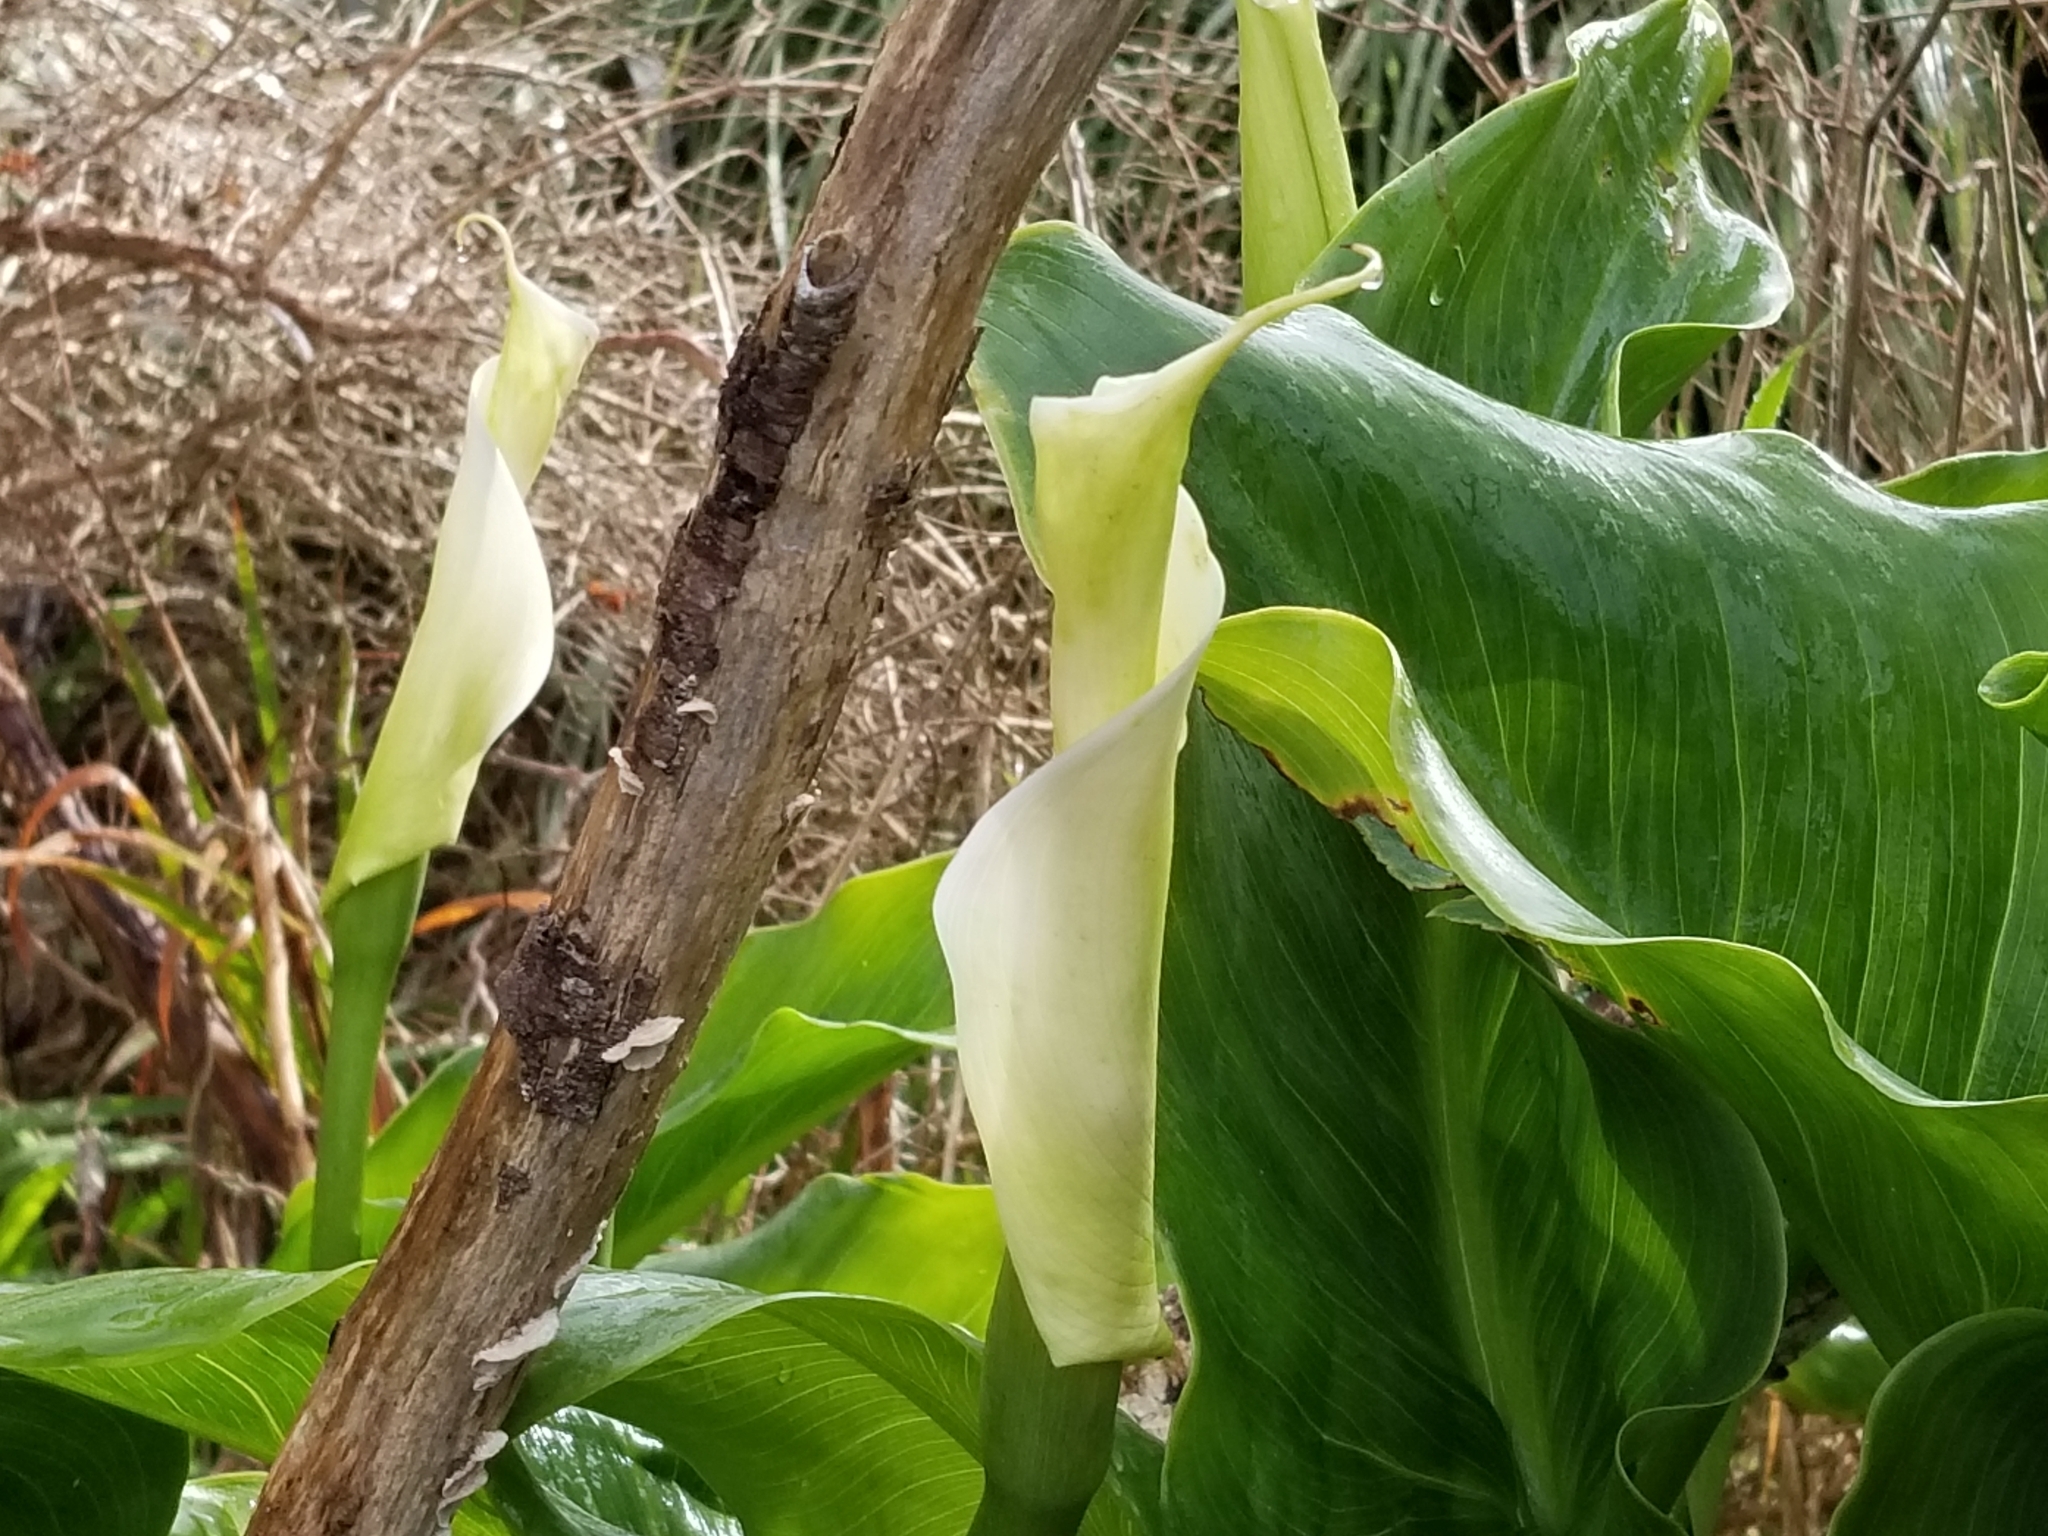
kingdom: Plantae
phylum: Tracheophyta
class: Liliopsida
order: Alismatales
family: Araceae
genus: Zantedeschia
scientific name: Zantedeschia aethiopica
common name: Altar-lily
